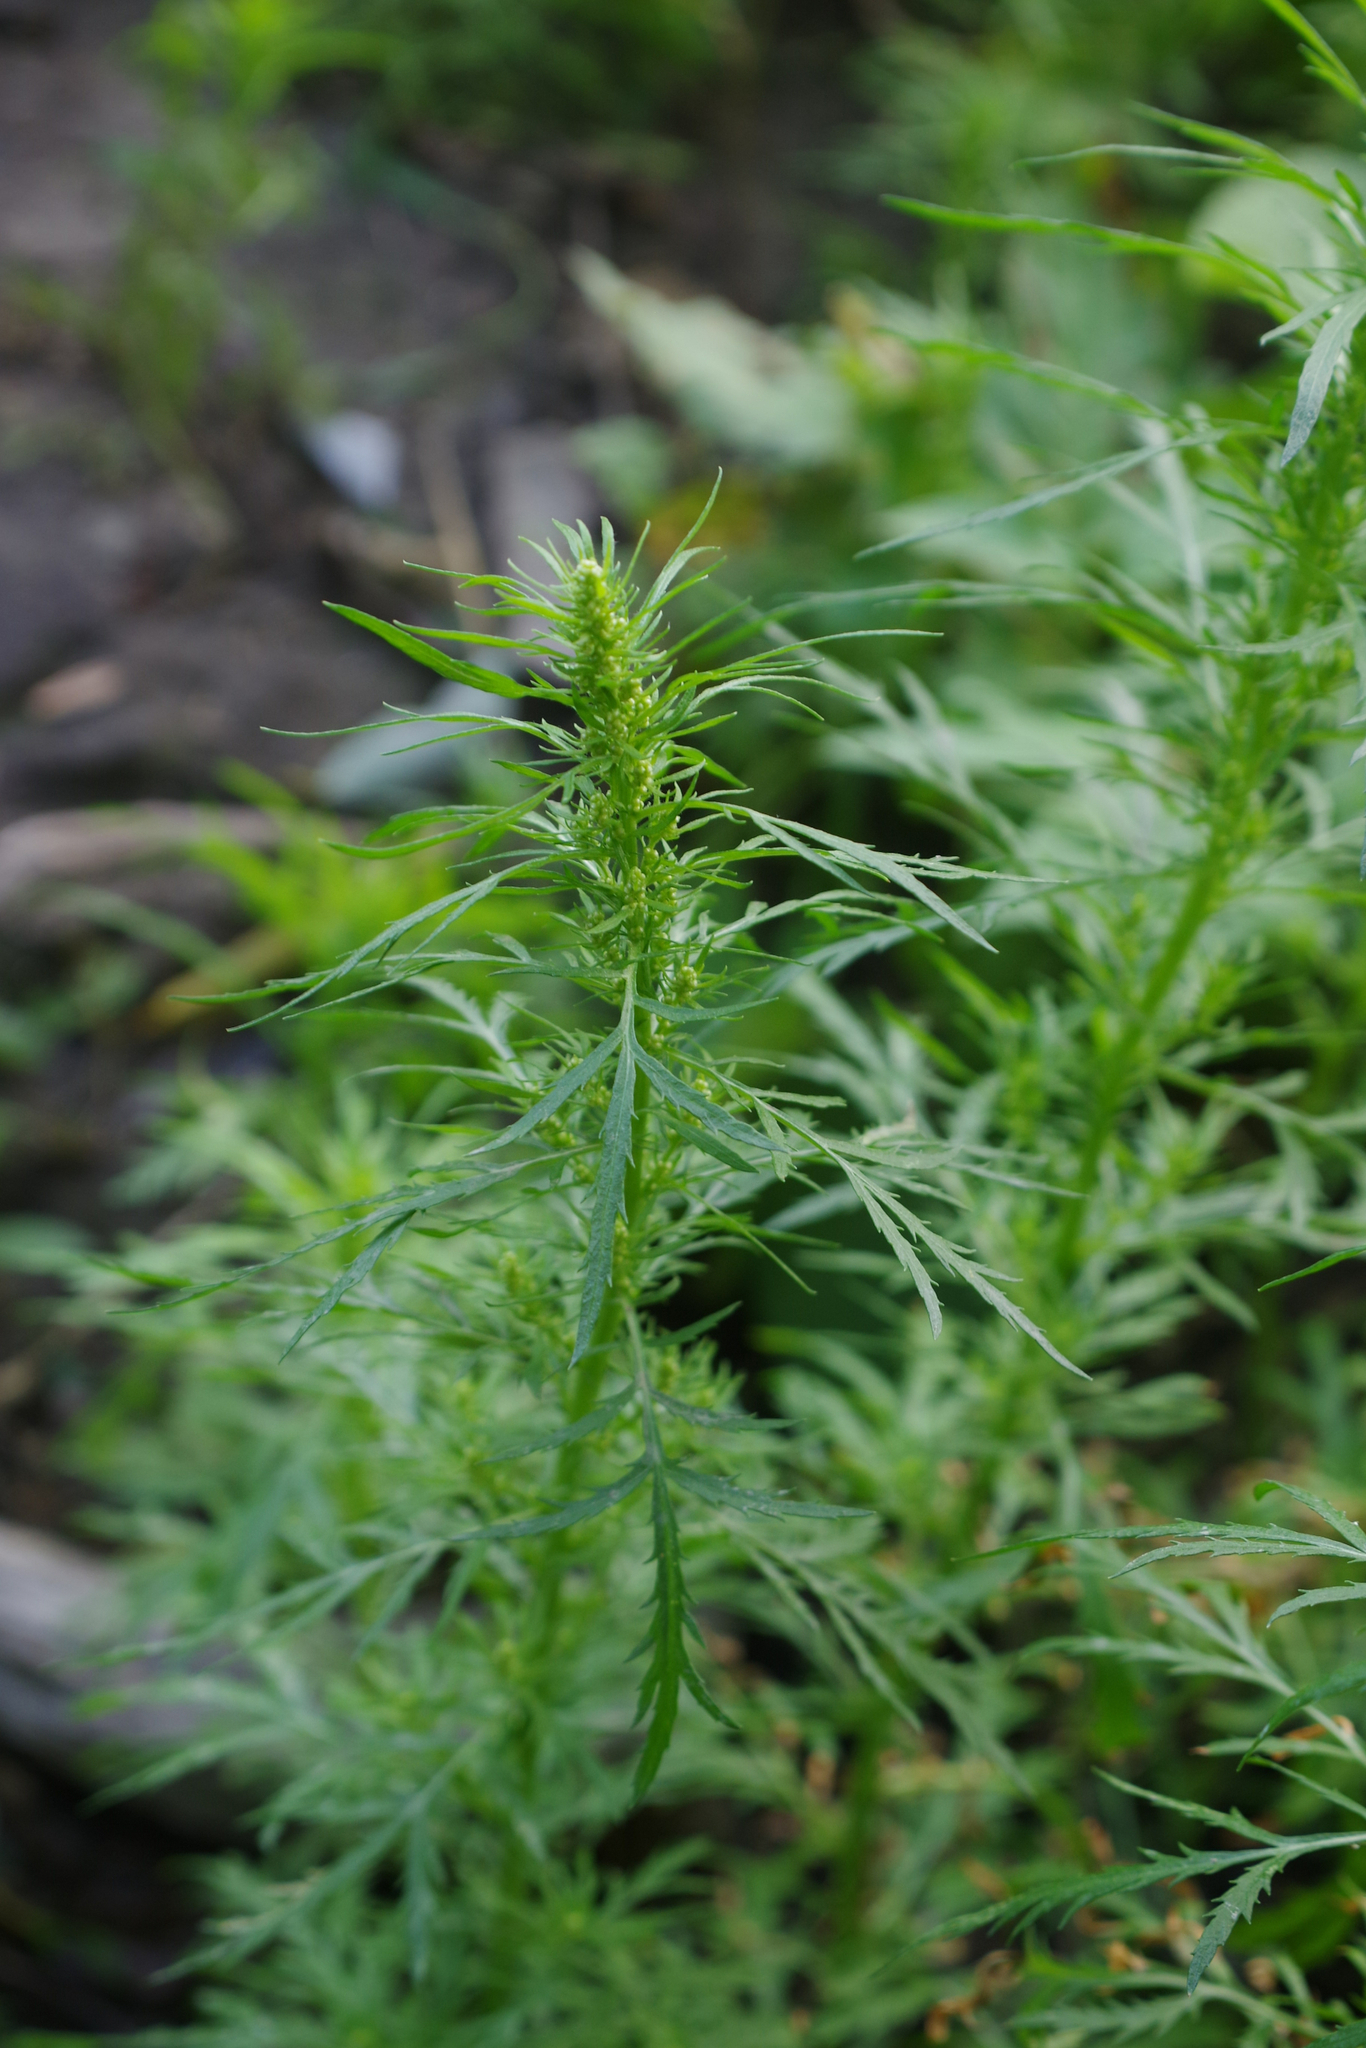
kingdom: Plantae
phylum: Tracheophyta
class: Magnoliopsida
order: Asterales
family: Asteraceae
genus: Artemisia
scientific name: Artemisia biennis
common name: Biennial wormwood
